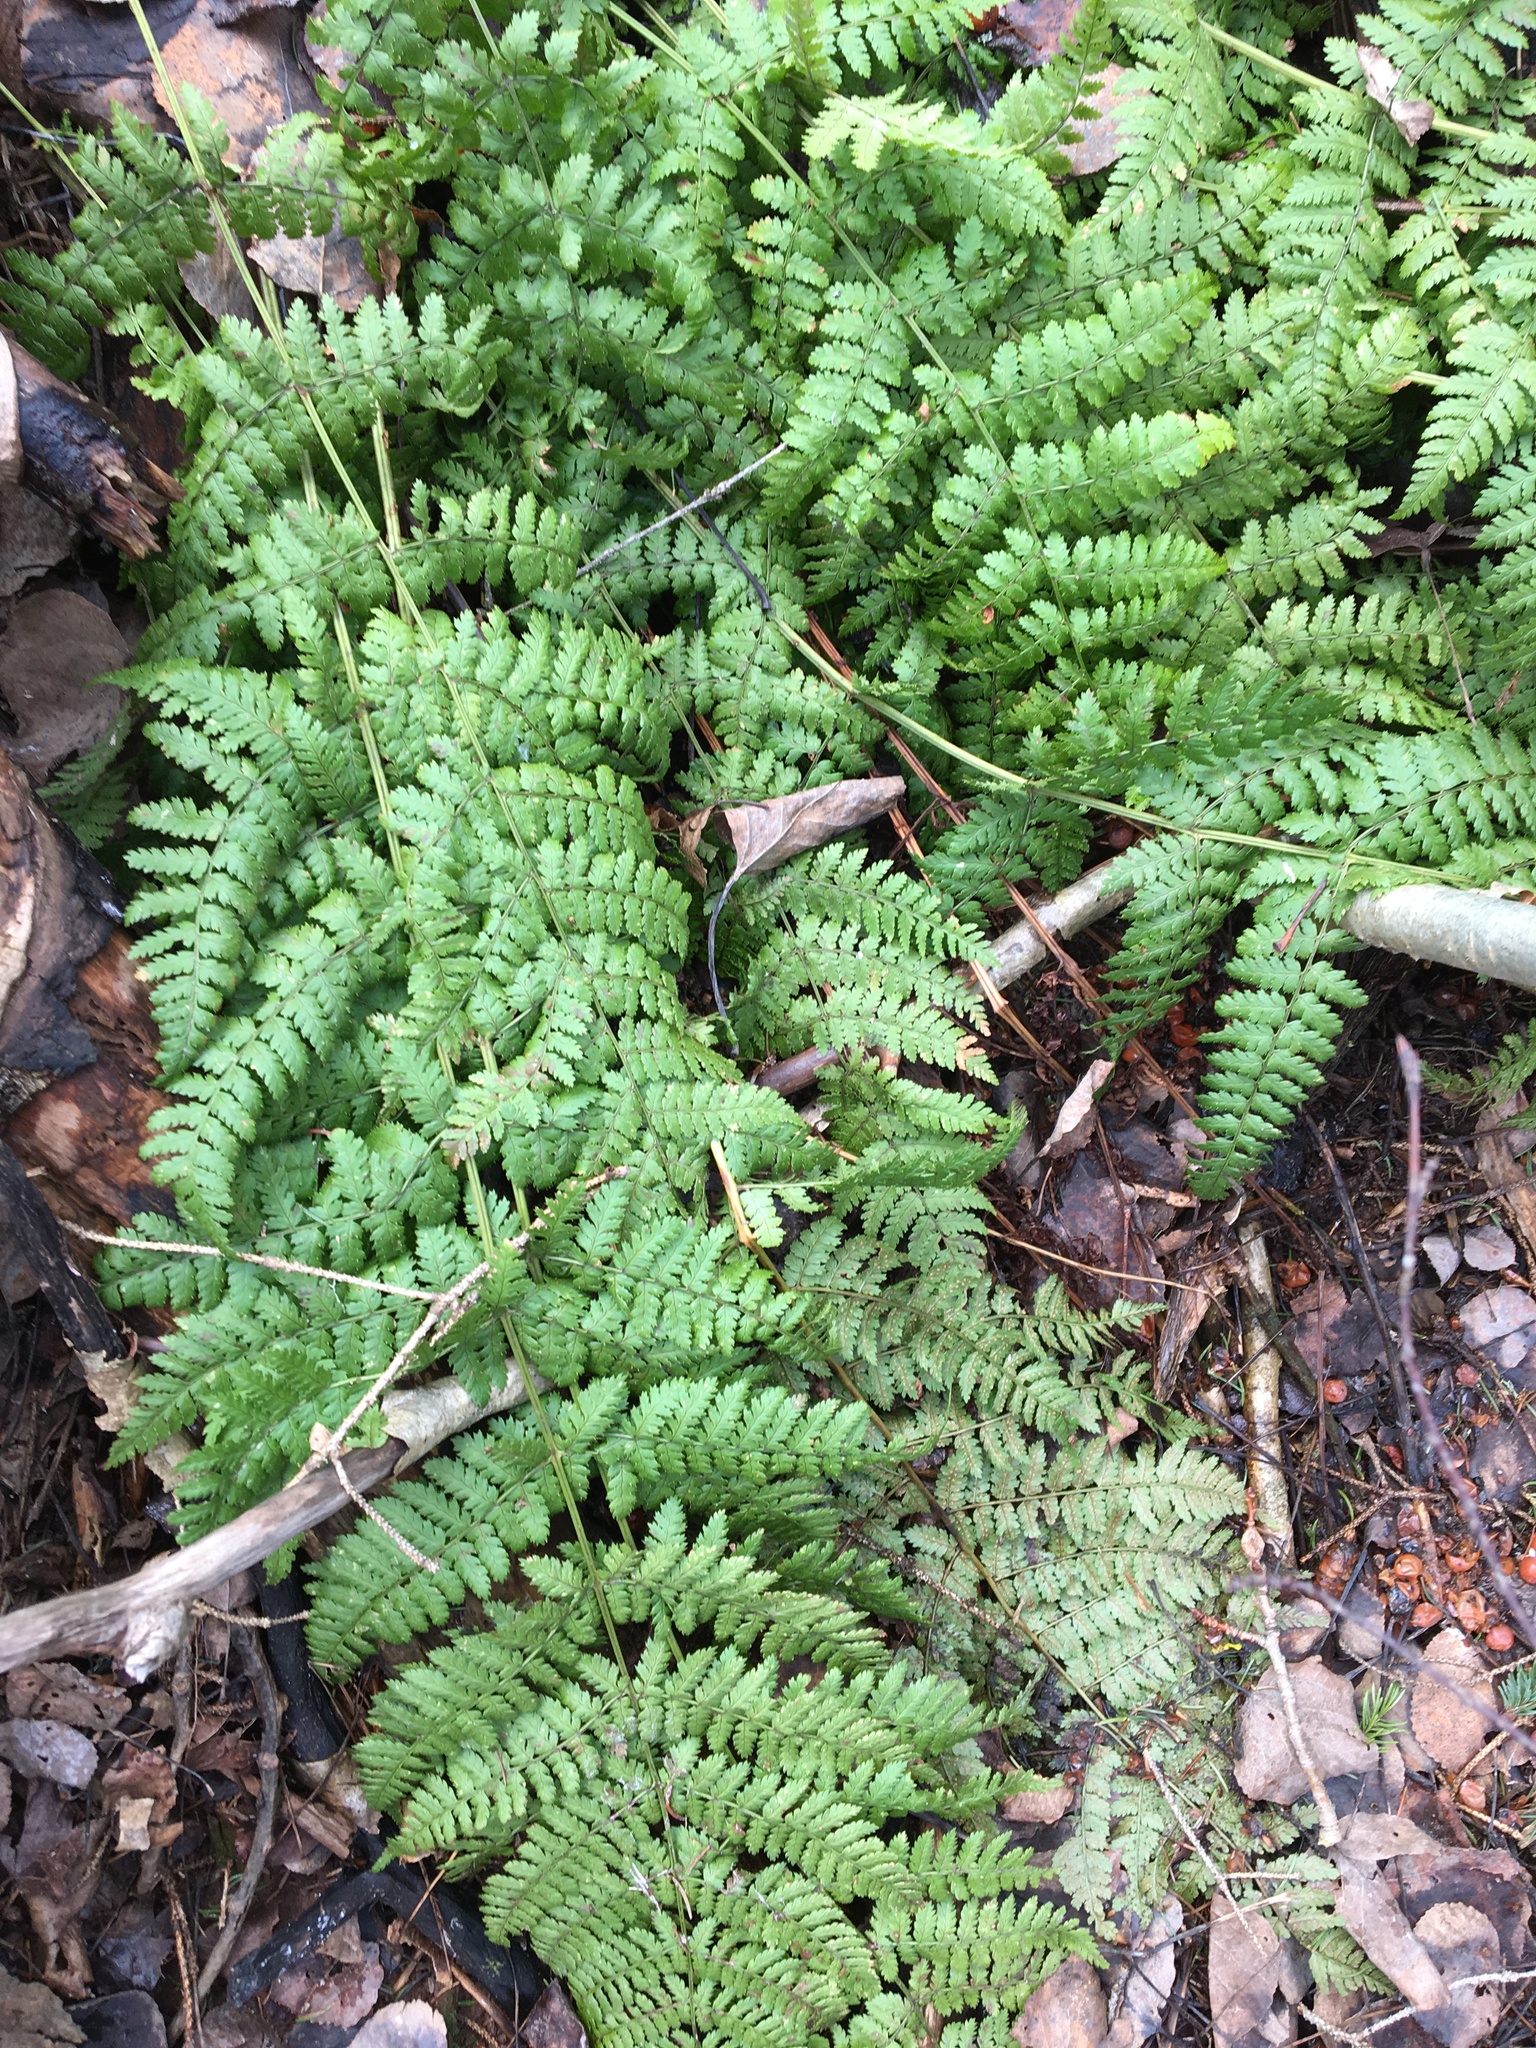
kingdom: Plantae
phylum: Tracheophyta
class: Polypodiopsida
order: Polypodiales
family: Dryopteridaceae
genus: Dryopteris
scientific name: Dryopteris intermedia
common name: Evergreen wood fern
